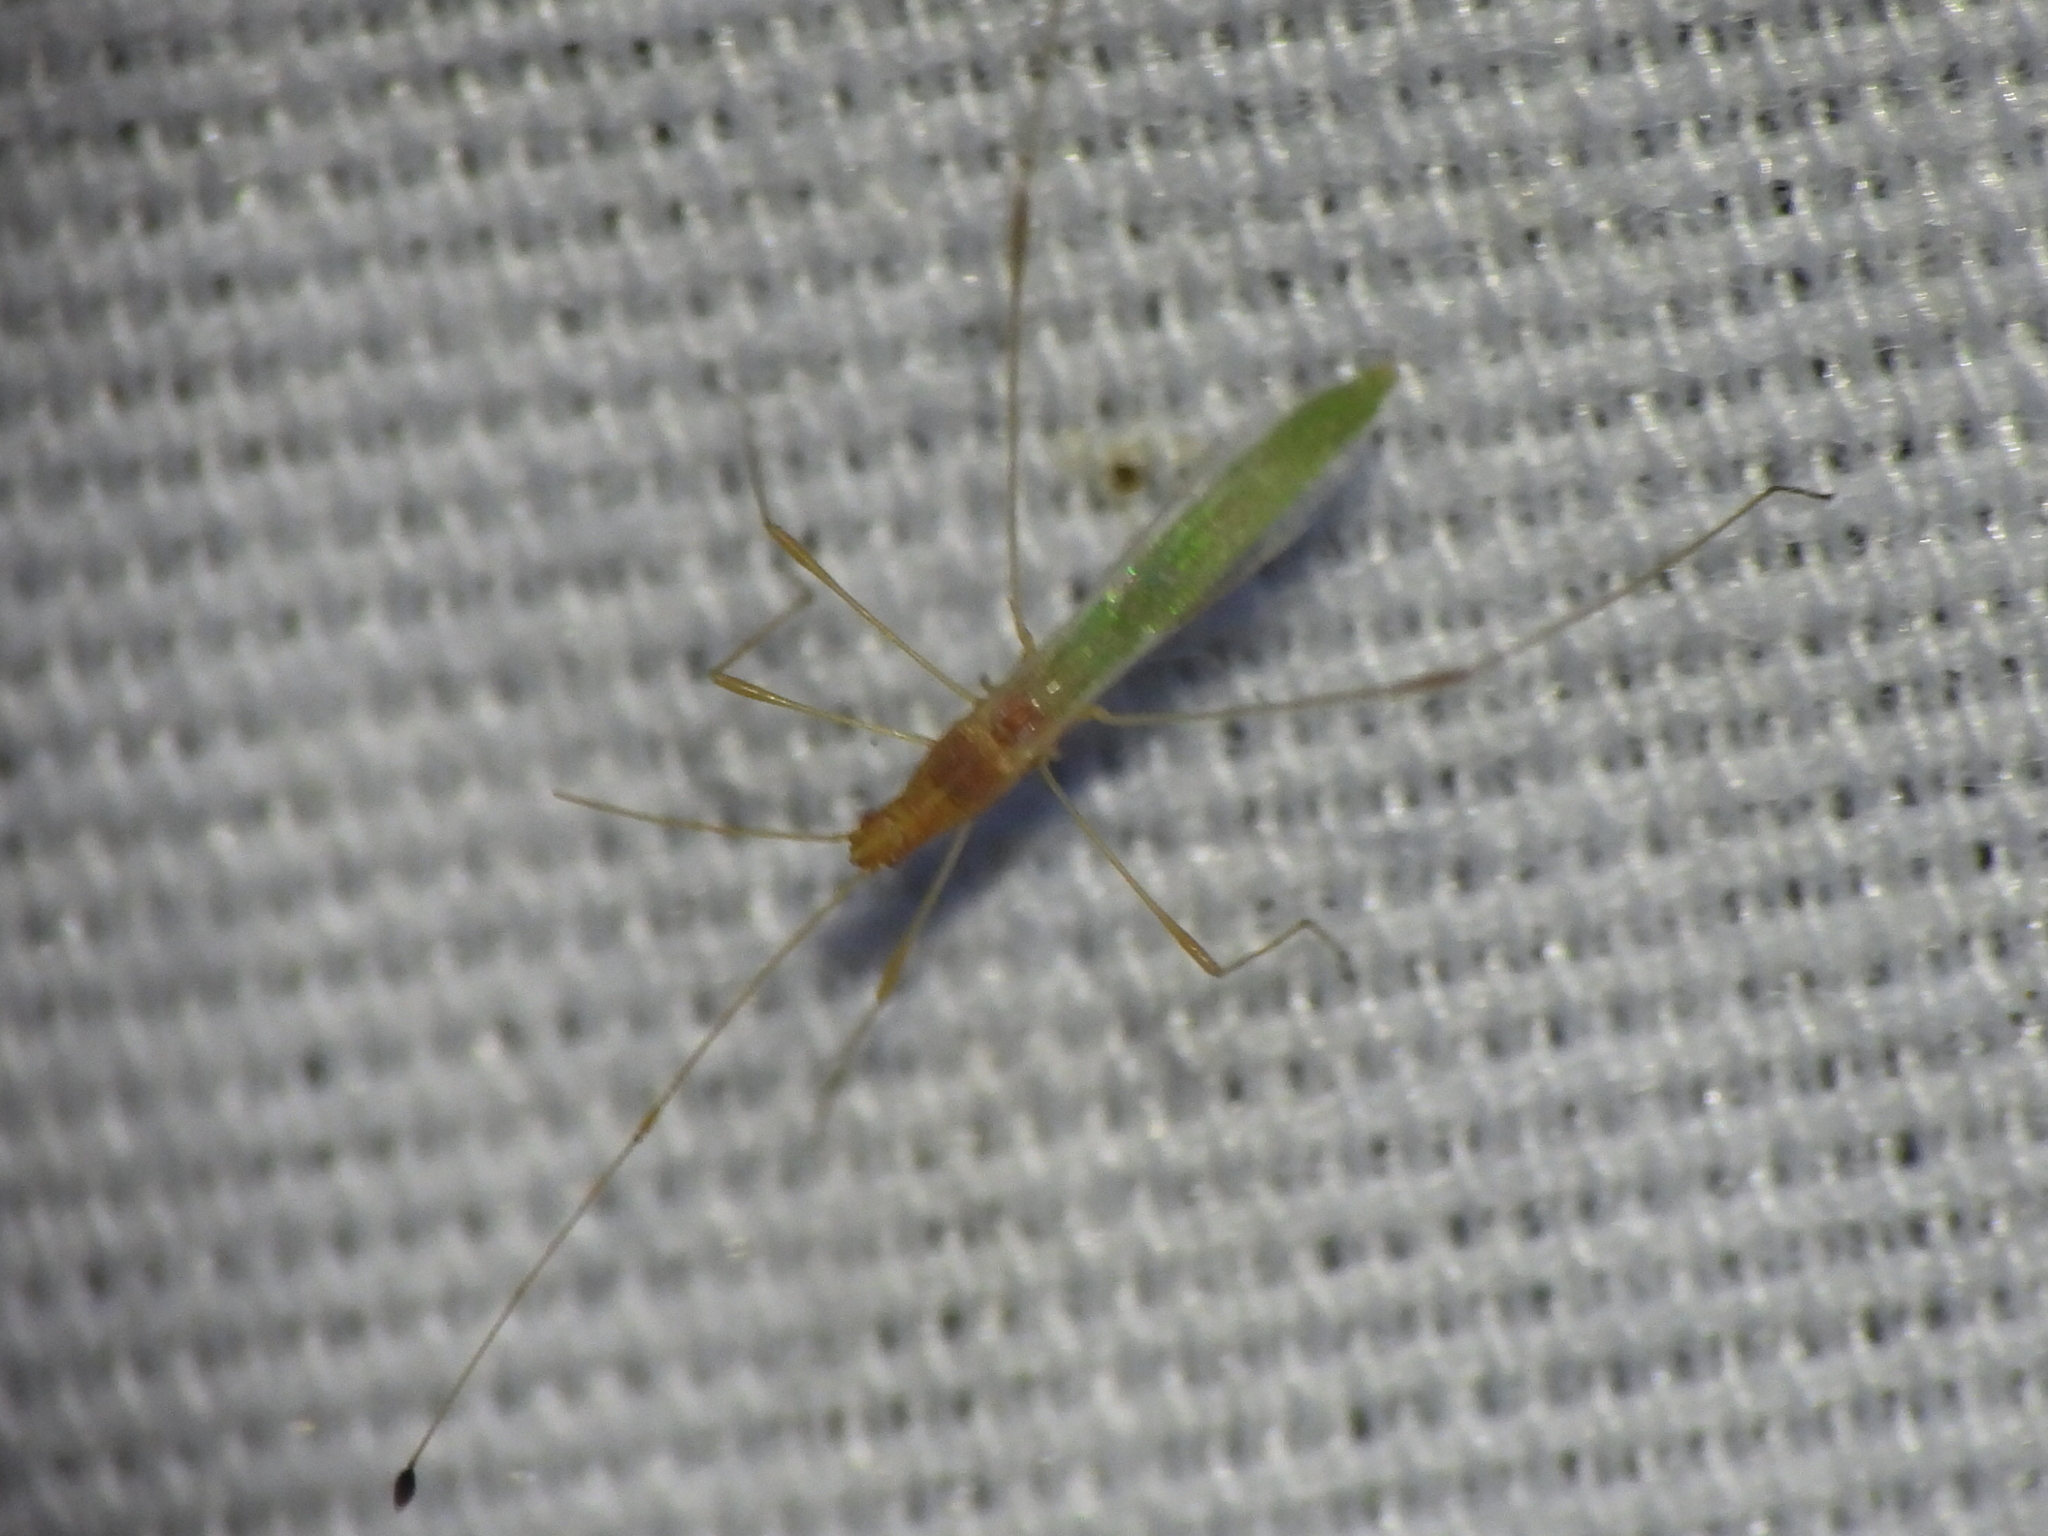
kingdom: Animalia
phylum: Arthropoda
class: Insecta
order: Hemiptera
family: Berytidae
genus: Metacanthus
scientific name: Metacanthus multispinus
